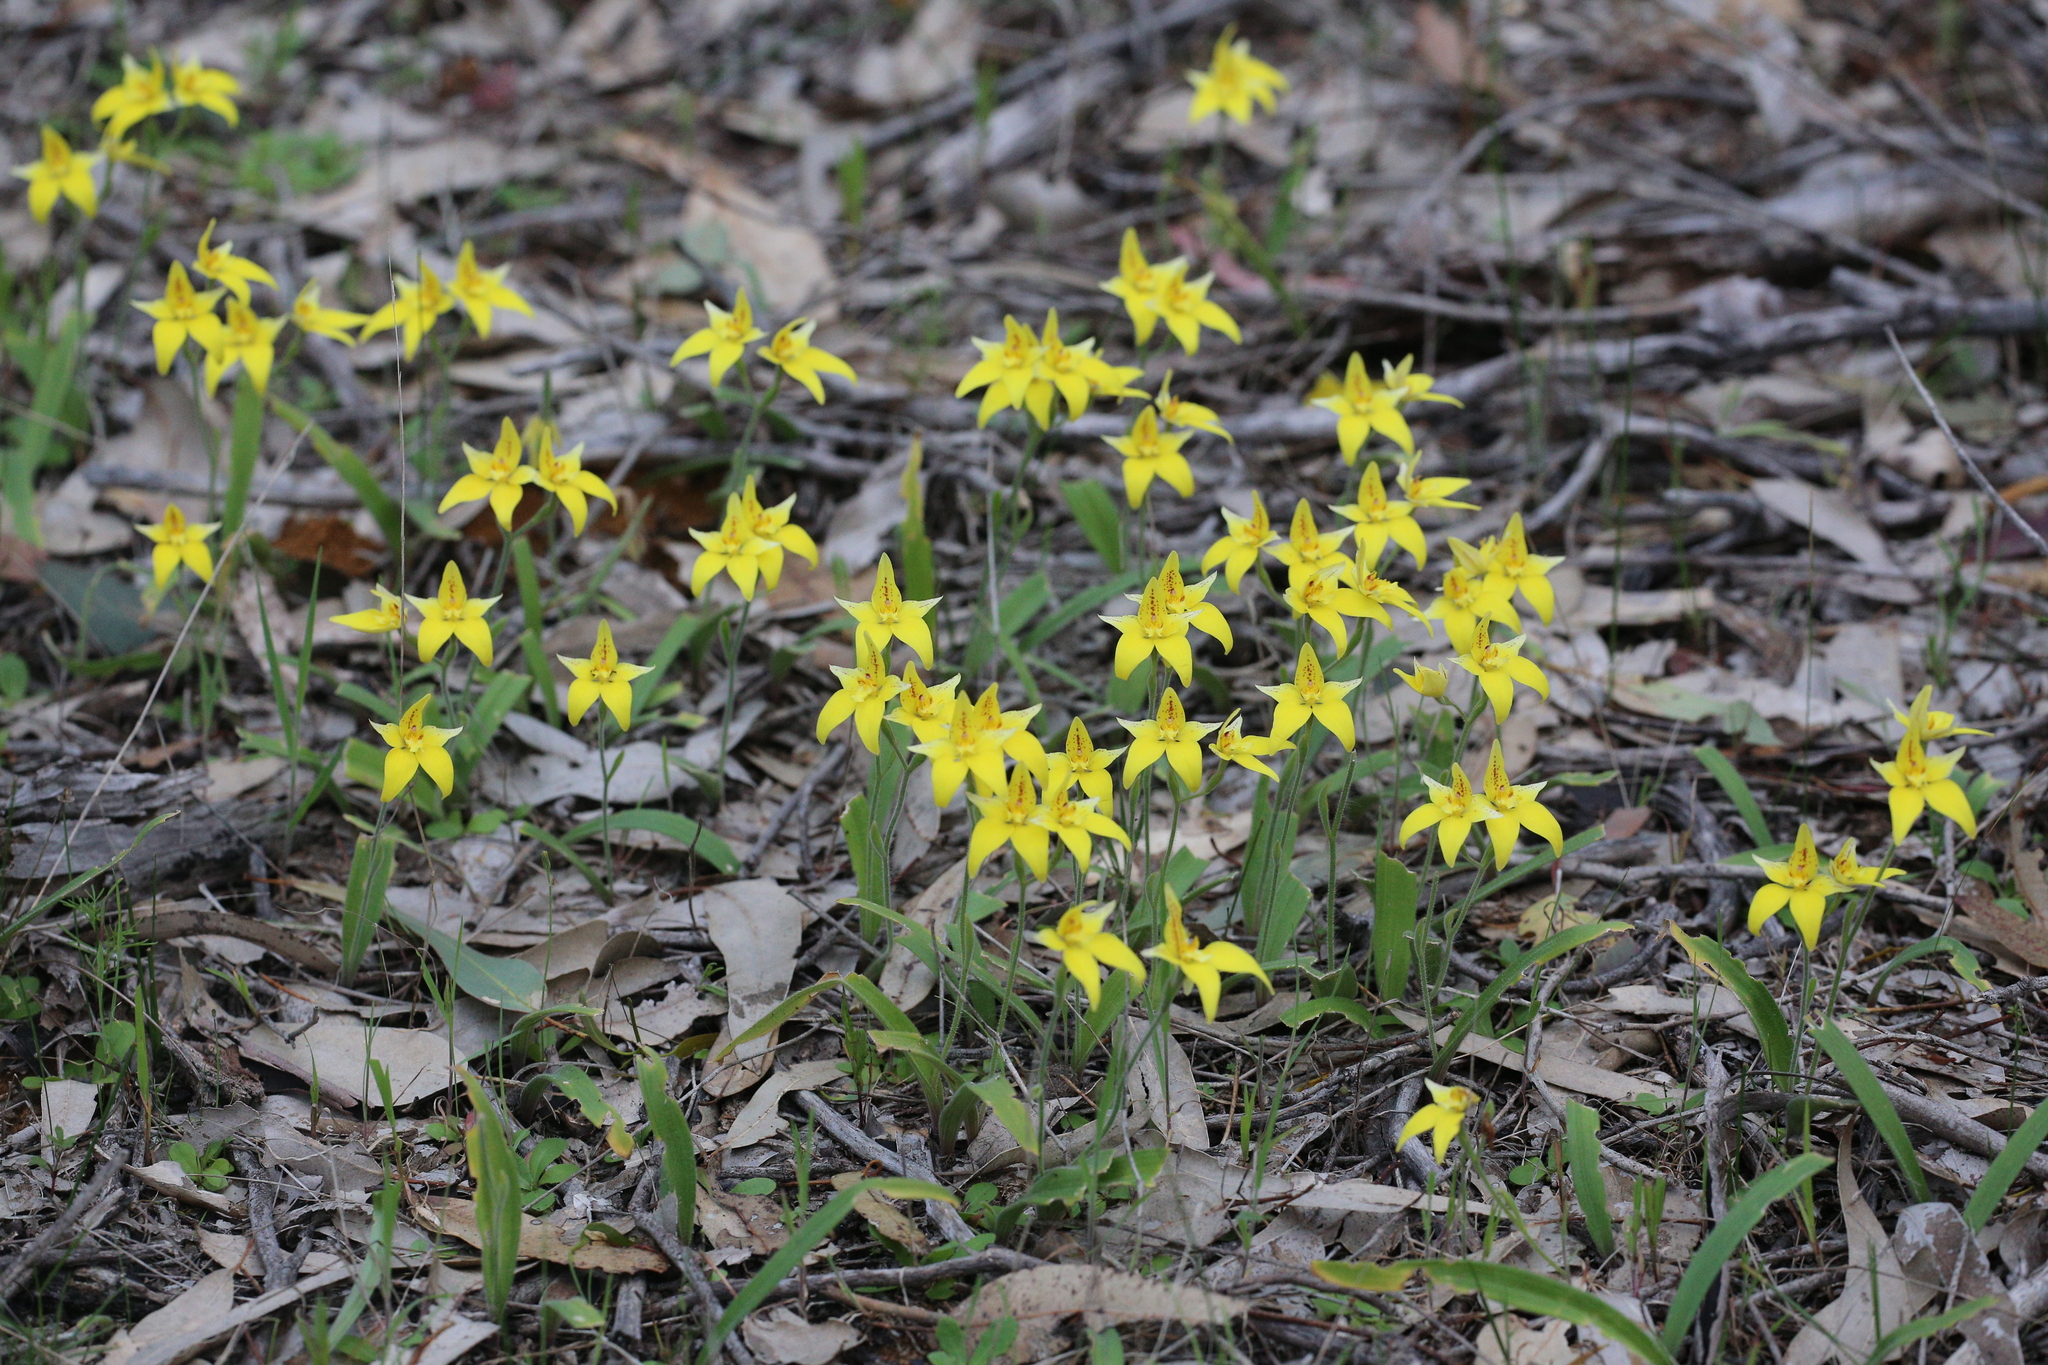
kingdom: Plantae
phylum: Tracheophyta
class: Liliopsida
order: Asparagales
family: Orchidaceae
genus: Caladenia
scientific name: Caladenia flava
